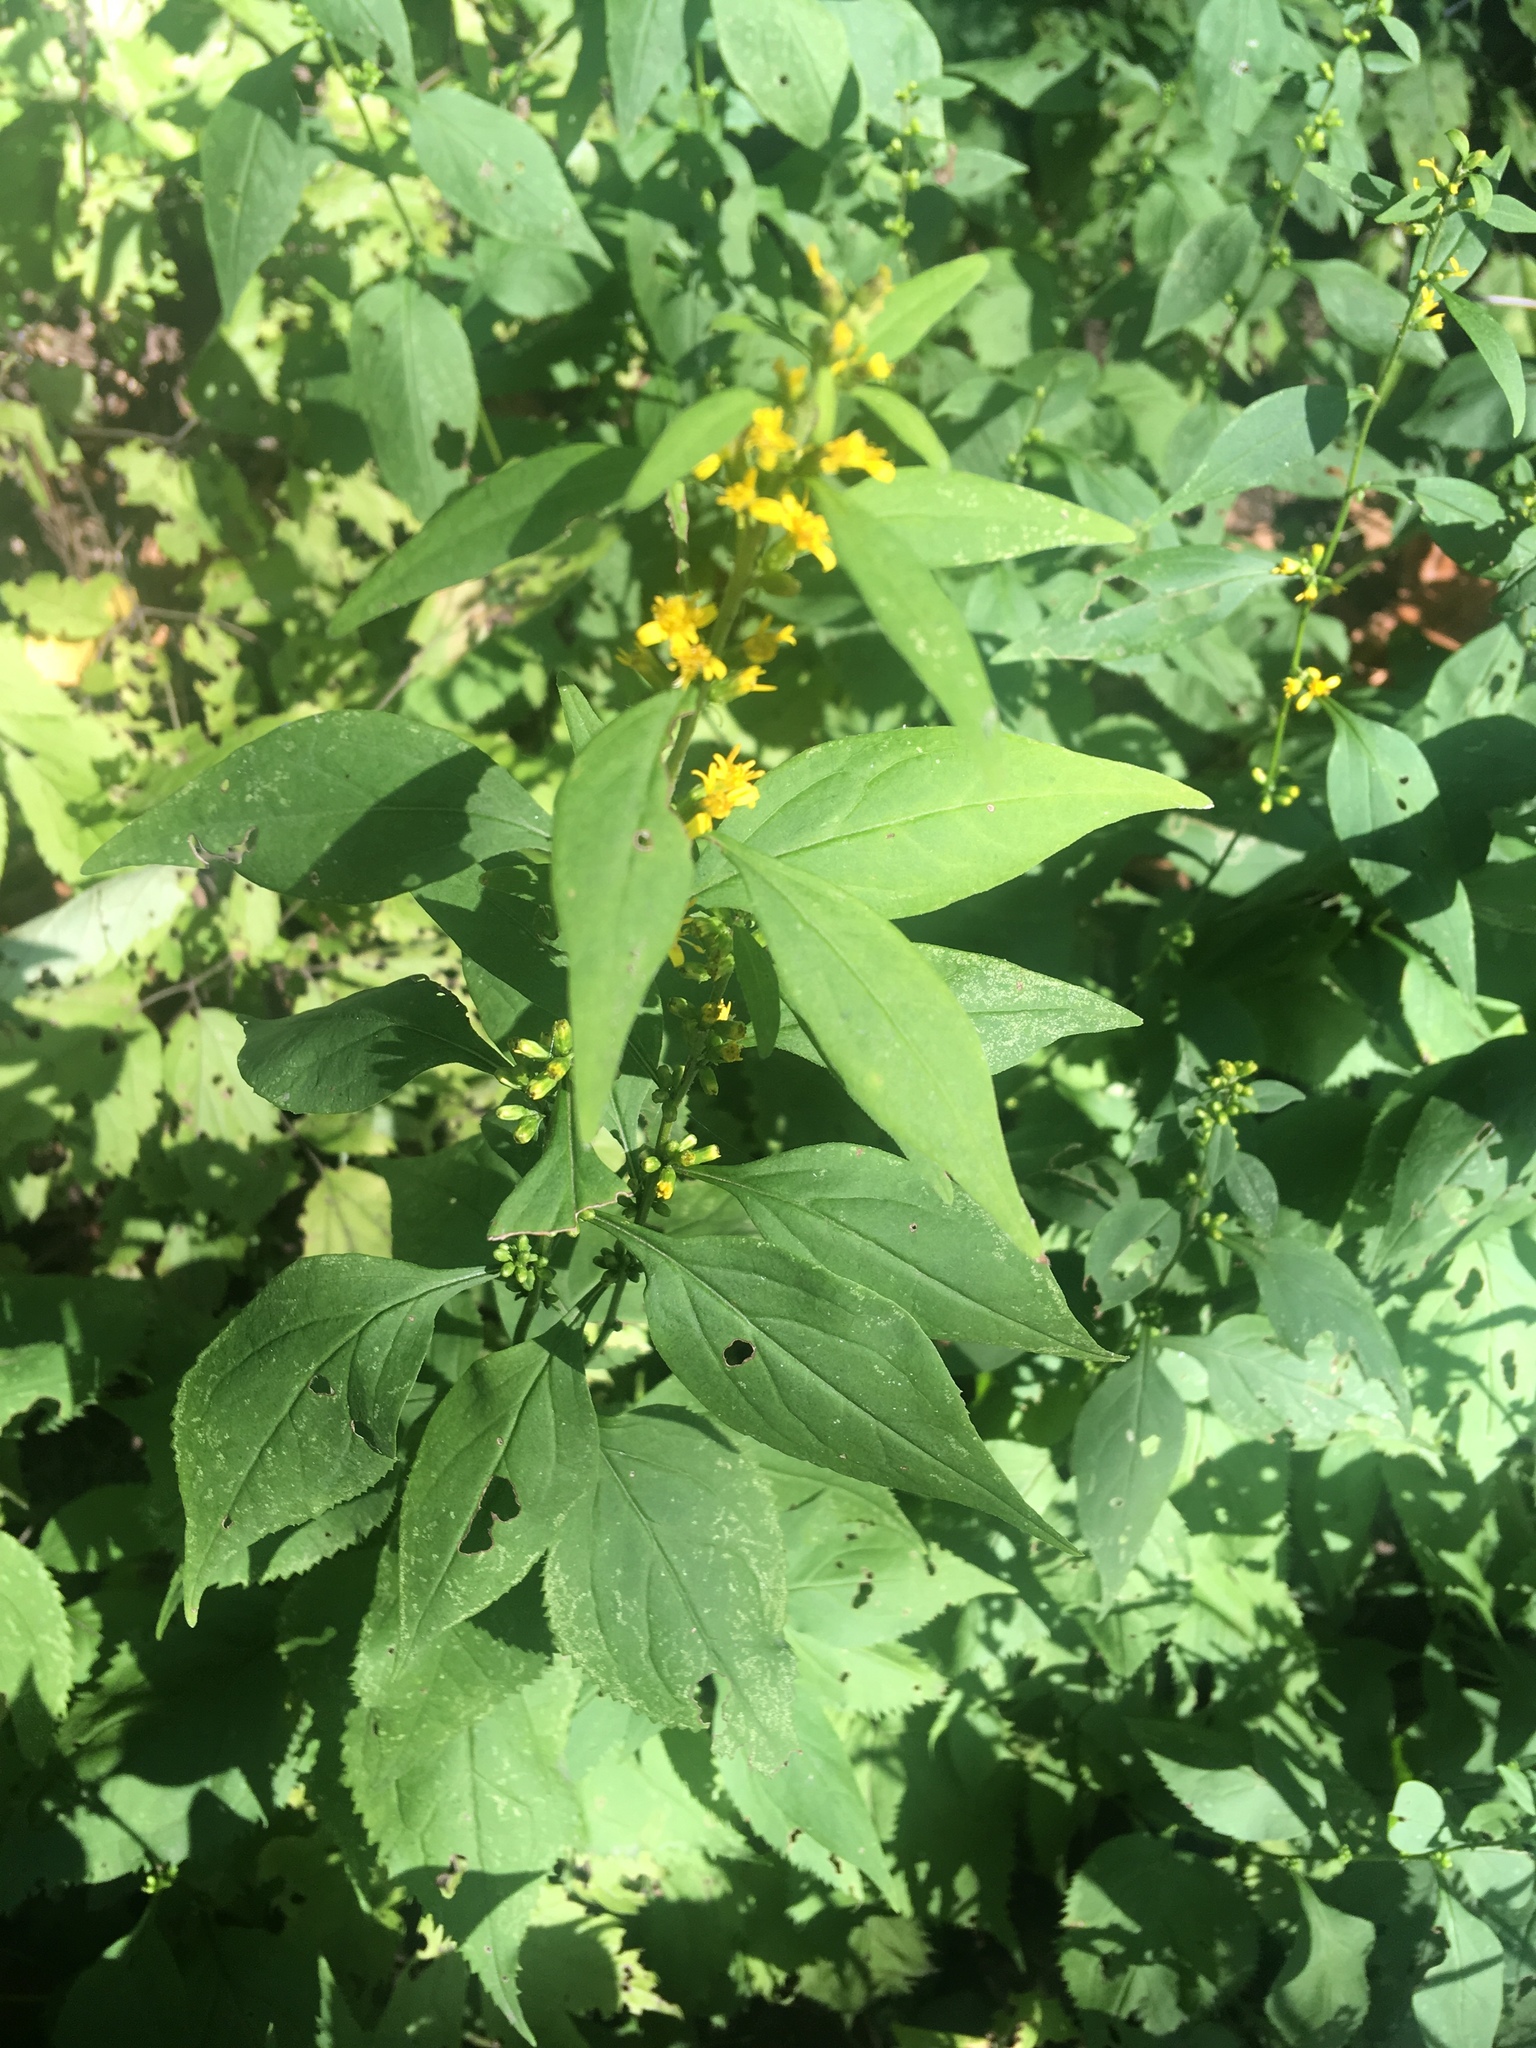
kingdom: Plantae
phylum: Tracheophyta
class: Magnoliopsida
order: Asterales
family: Asteraceae
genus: Solidago
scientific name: Solidago flexicaulis
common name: Zig-zag goldenrod
